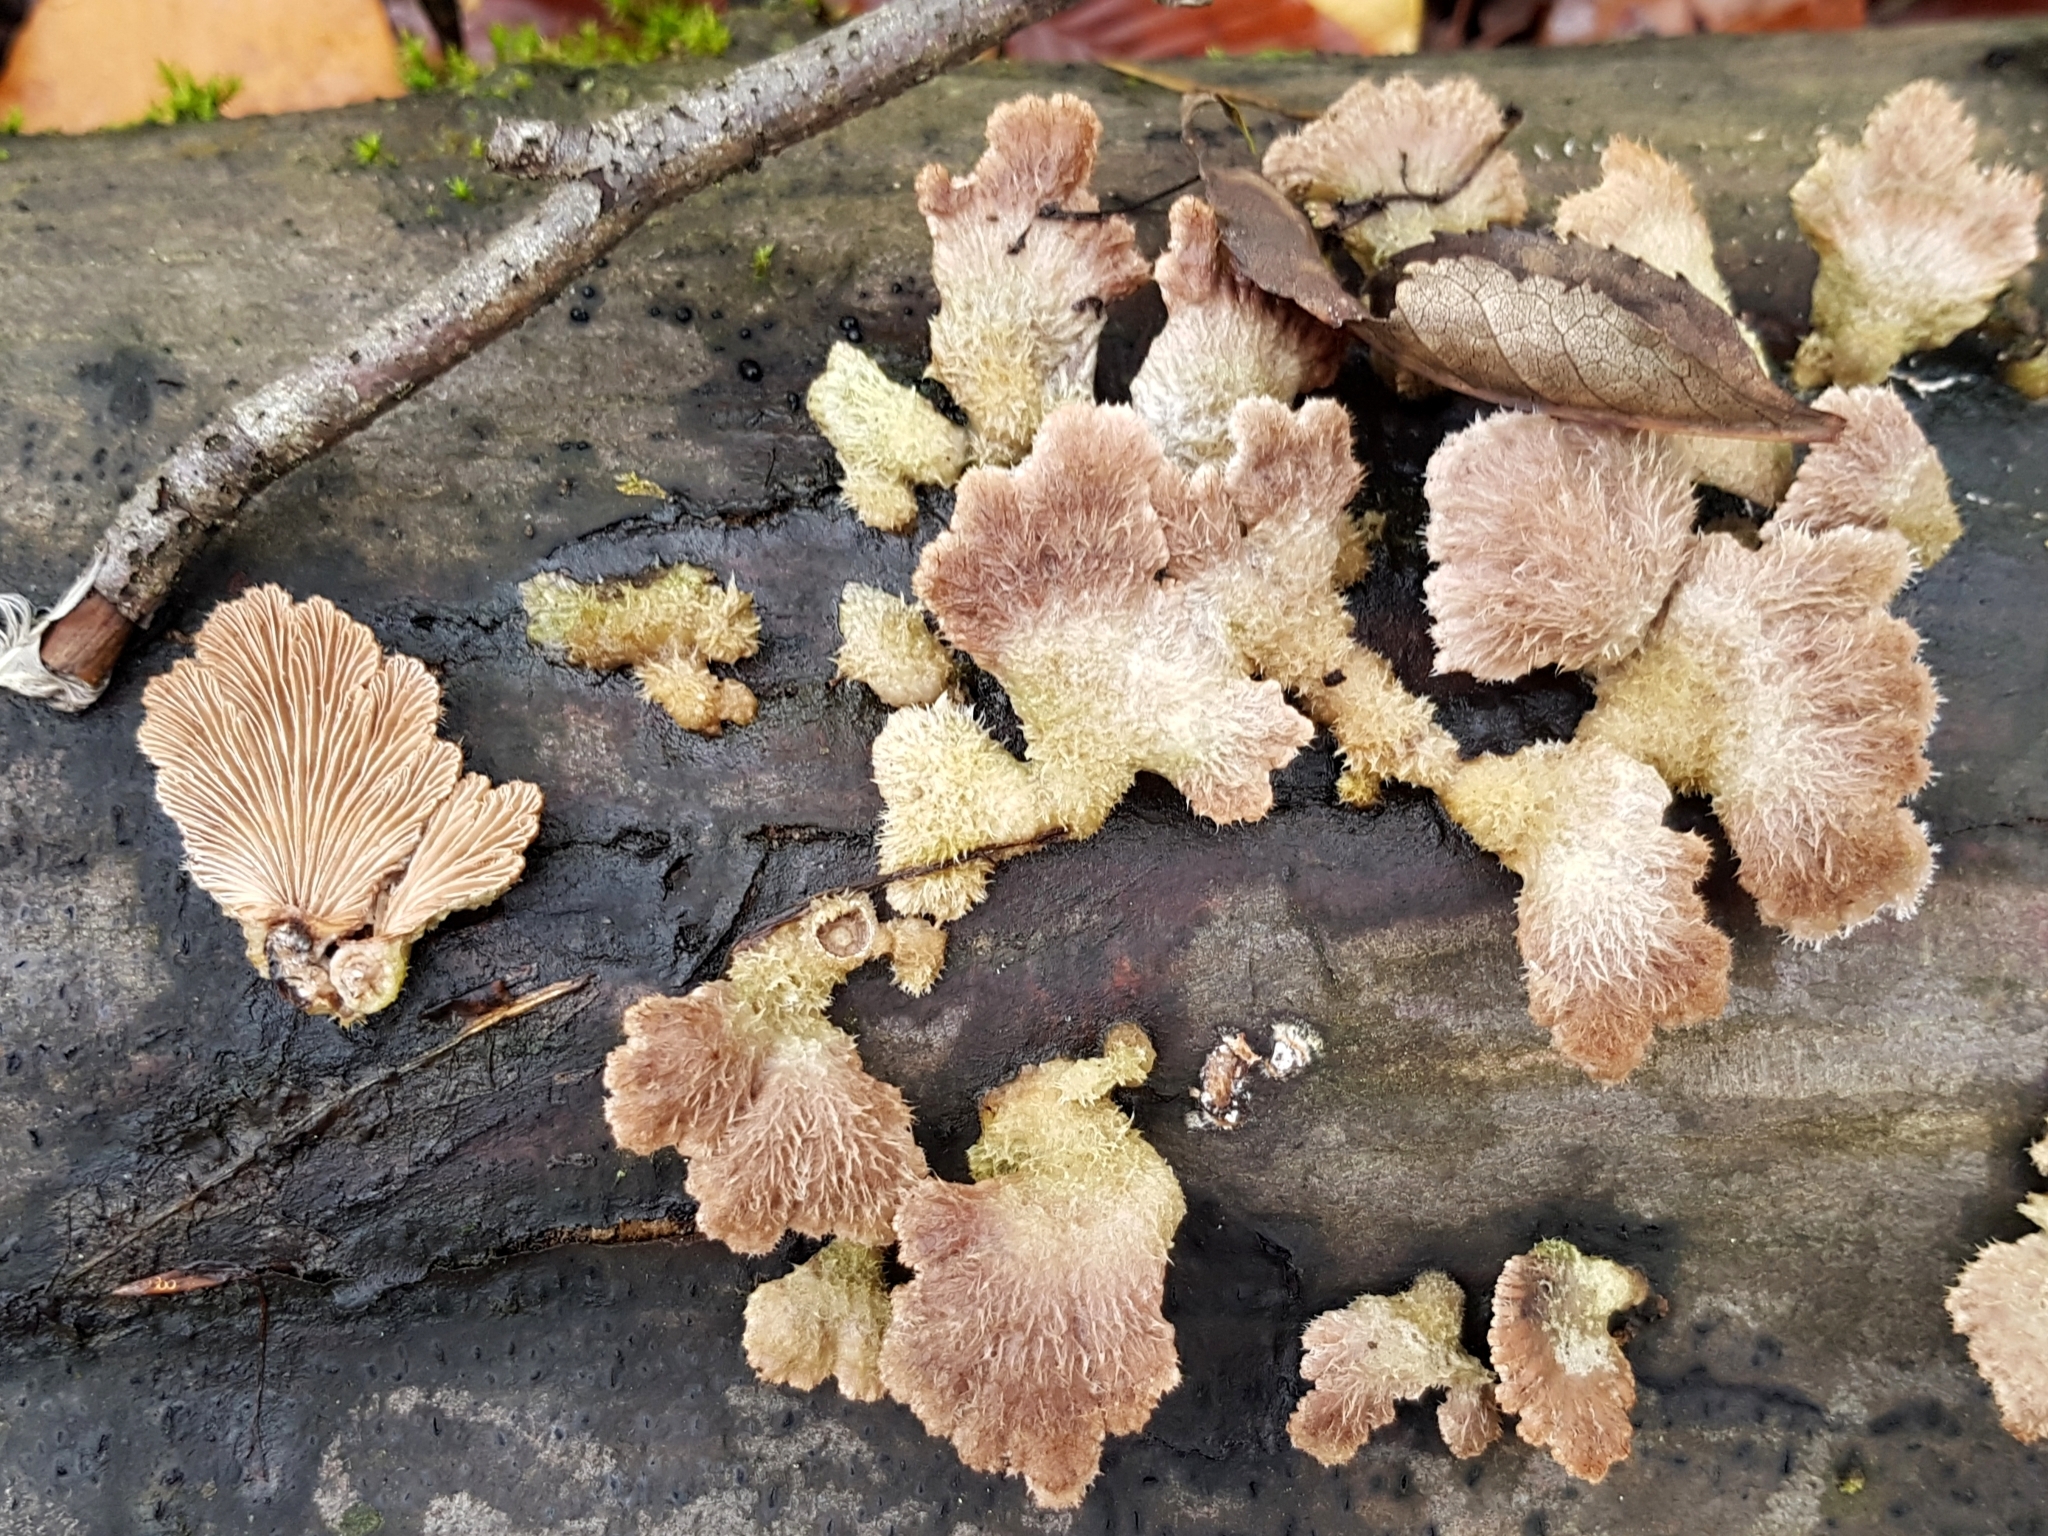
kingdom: Fungi
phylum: Basidiomycota
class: Agaricomycetes
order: Agaricales
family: Schizophyllaceae
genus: Schizophyllum
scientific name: Schizophyllum commune
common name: Common porecrust
